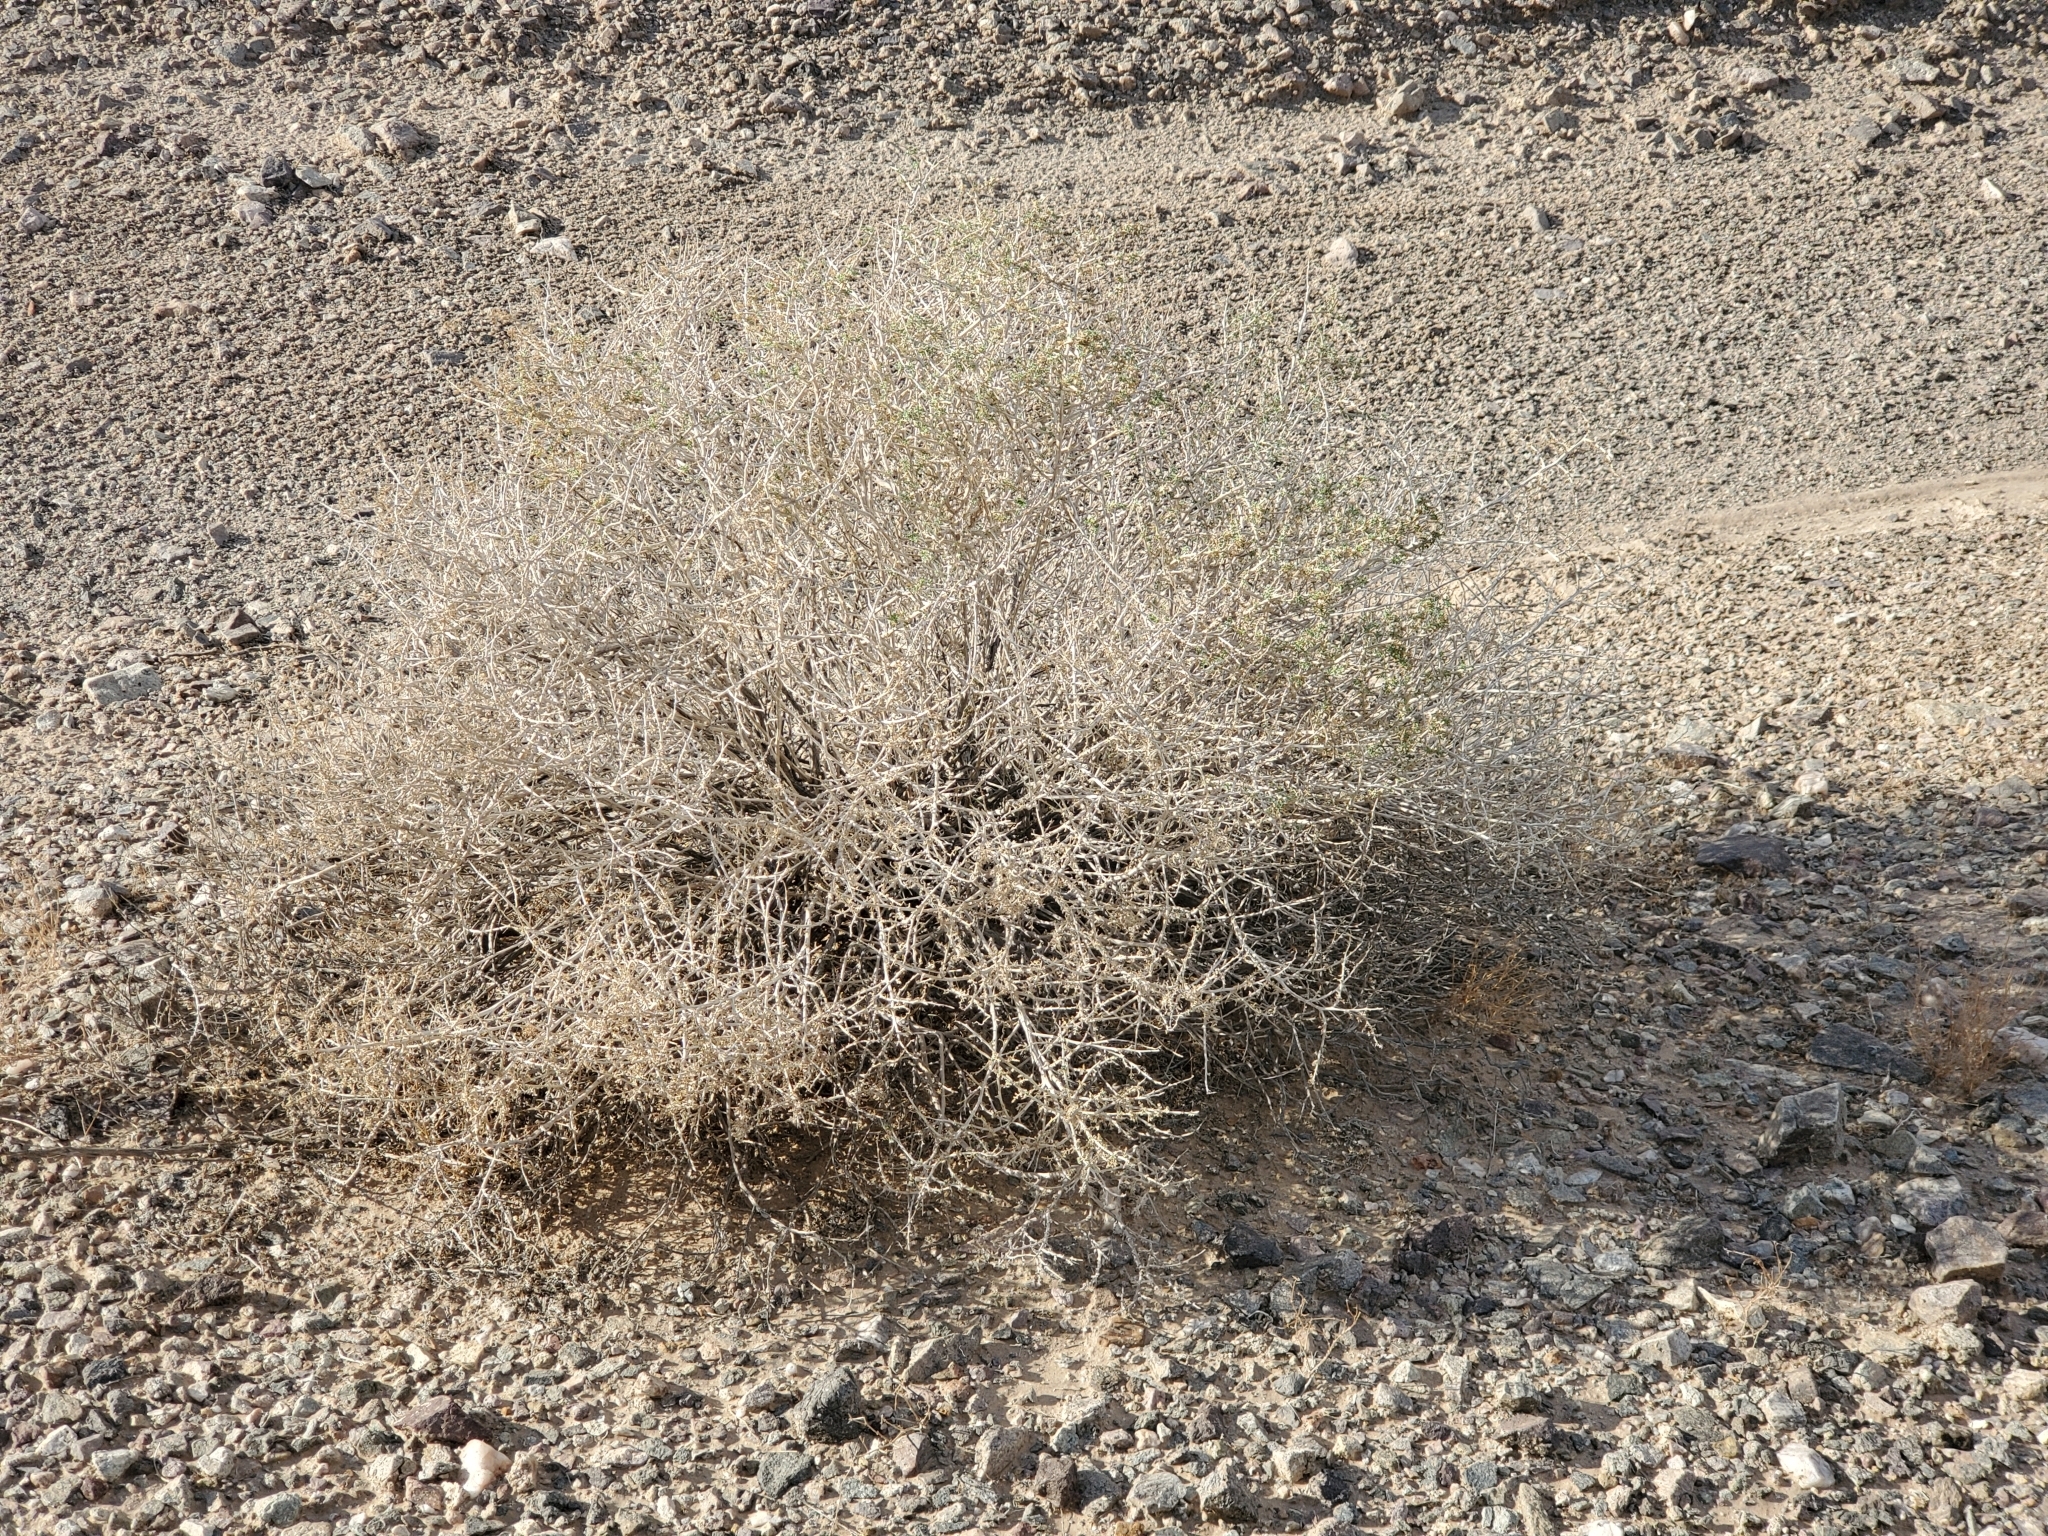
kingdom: Plantae
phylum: Tracheophyta
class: Magnoliopsida
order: Asterales
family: Asteraceae
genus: Ambrosia
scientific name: Ambrosia dumosa
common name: Bur-sage
